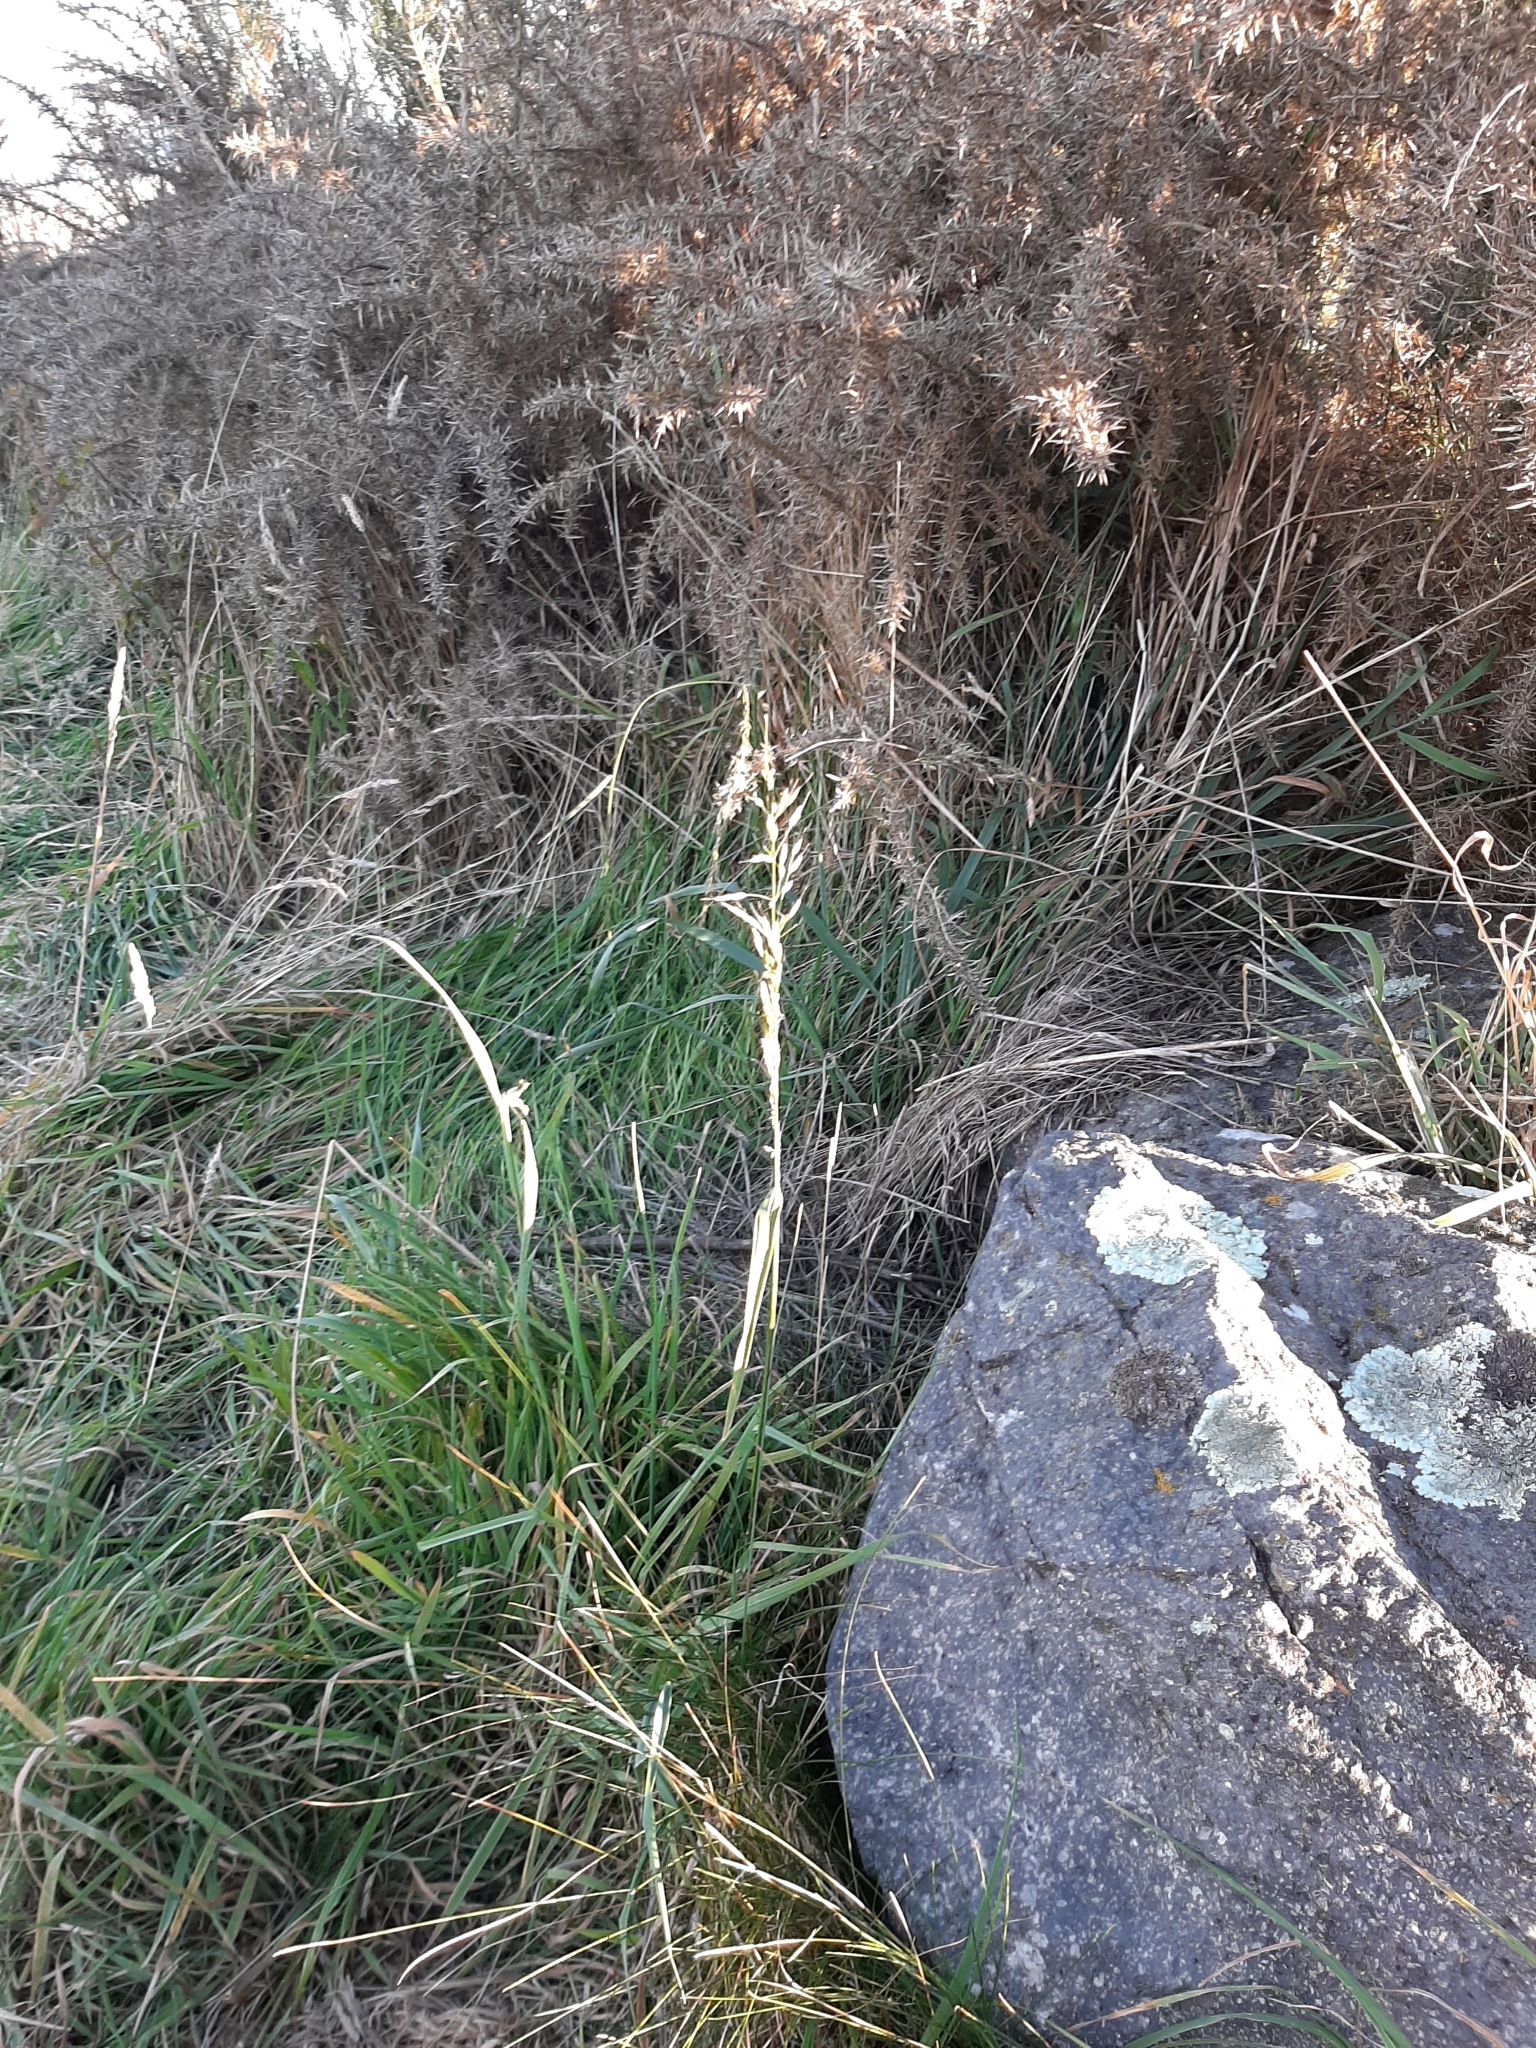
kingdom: Plantae
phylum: Tracheophyta
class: Liliopsida
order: Poales
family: Poaceae
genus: Arrhenatherum
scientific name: Arrhenatherum elatius
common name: Tall oatgrass
